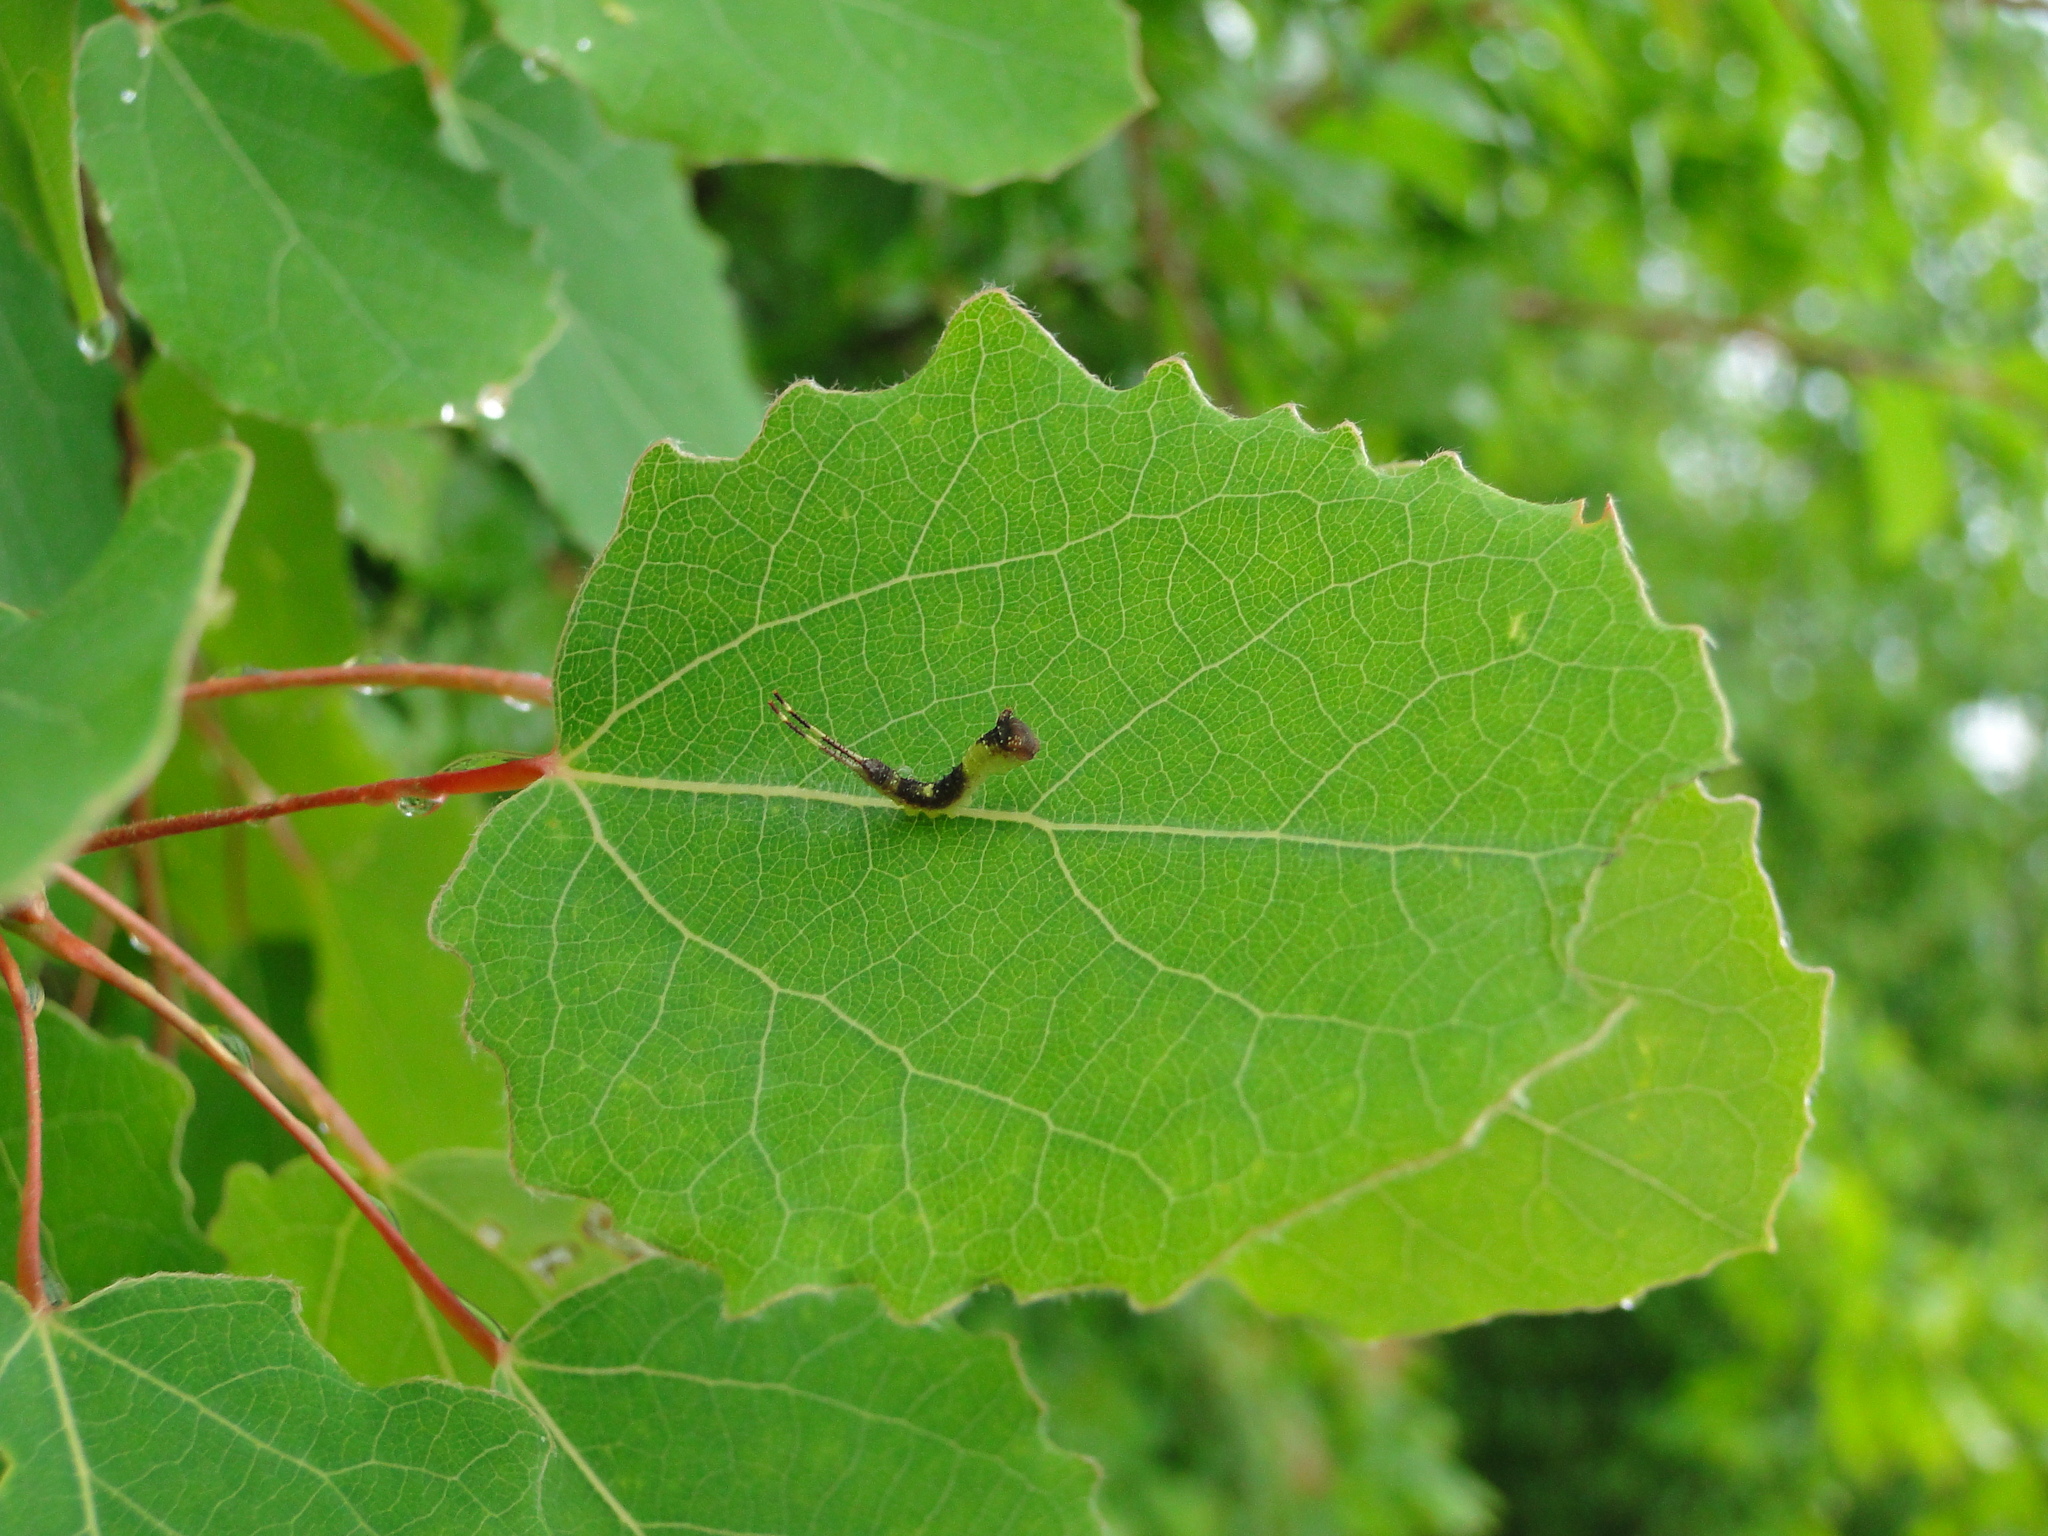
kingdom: Animalia
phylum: Arthropoda
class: Insecta
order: Lepidoptera
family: Notodontidae
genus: Furcula
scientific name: Furcula bifida
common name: Poplar kitten
